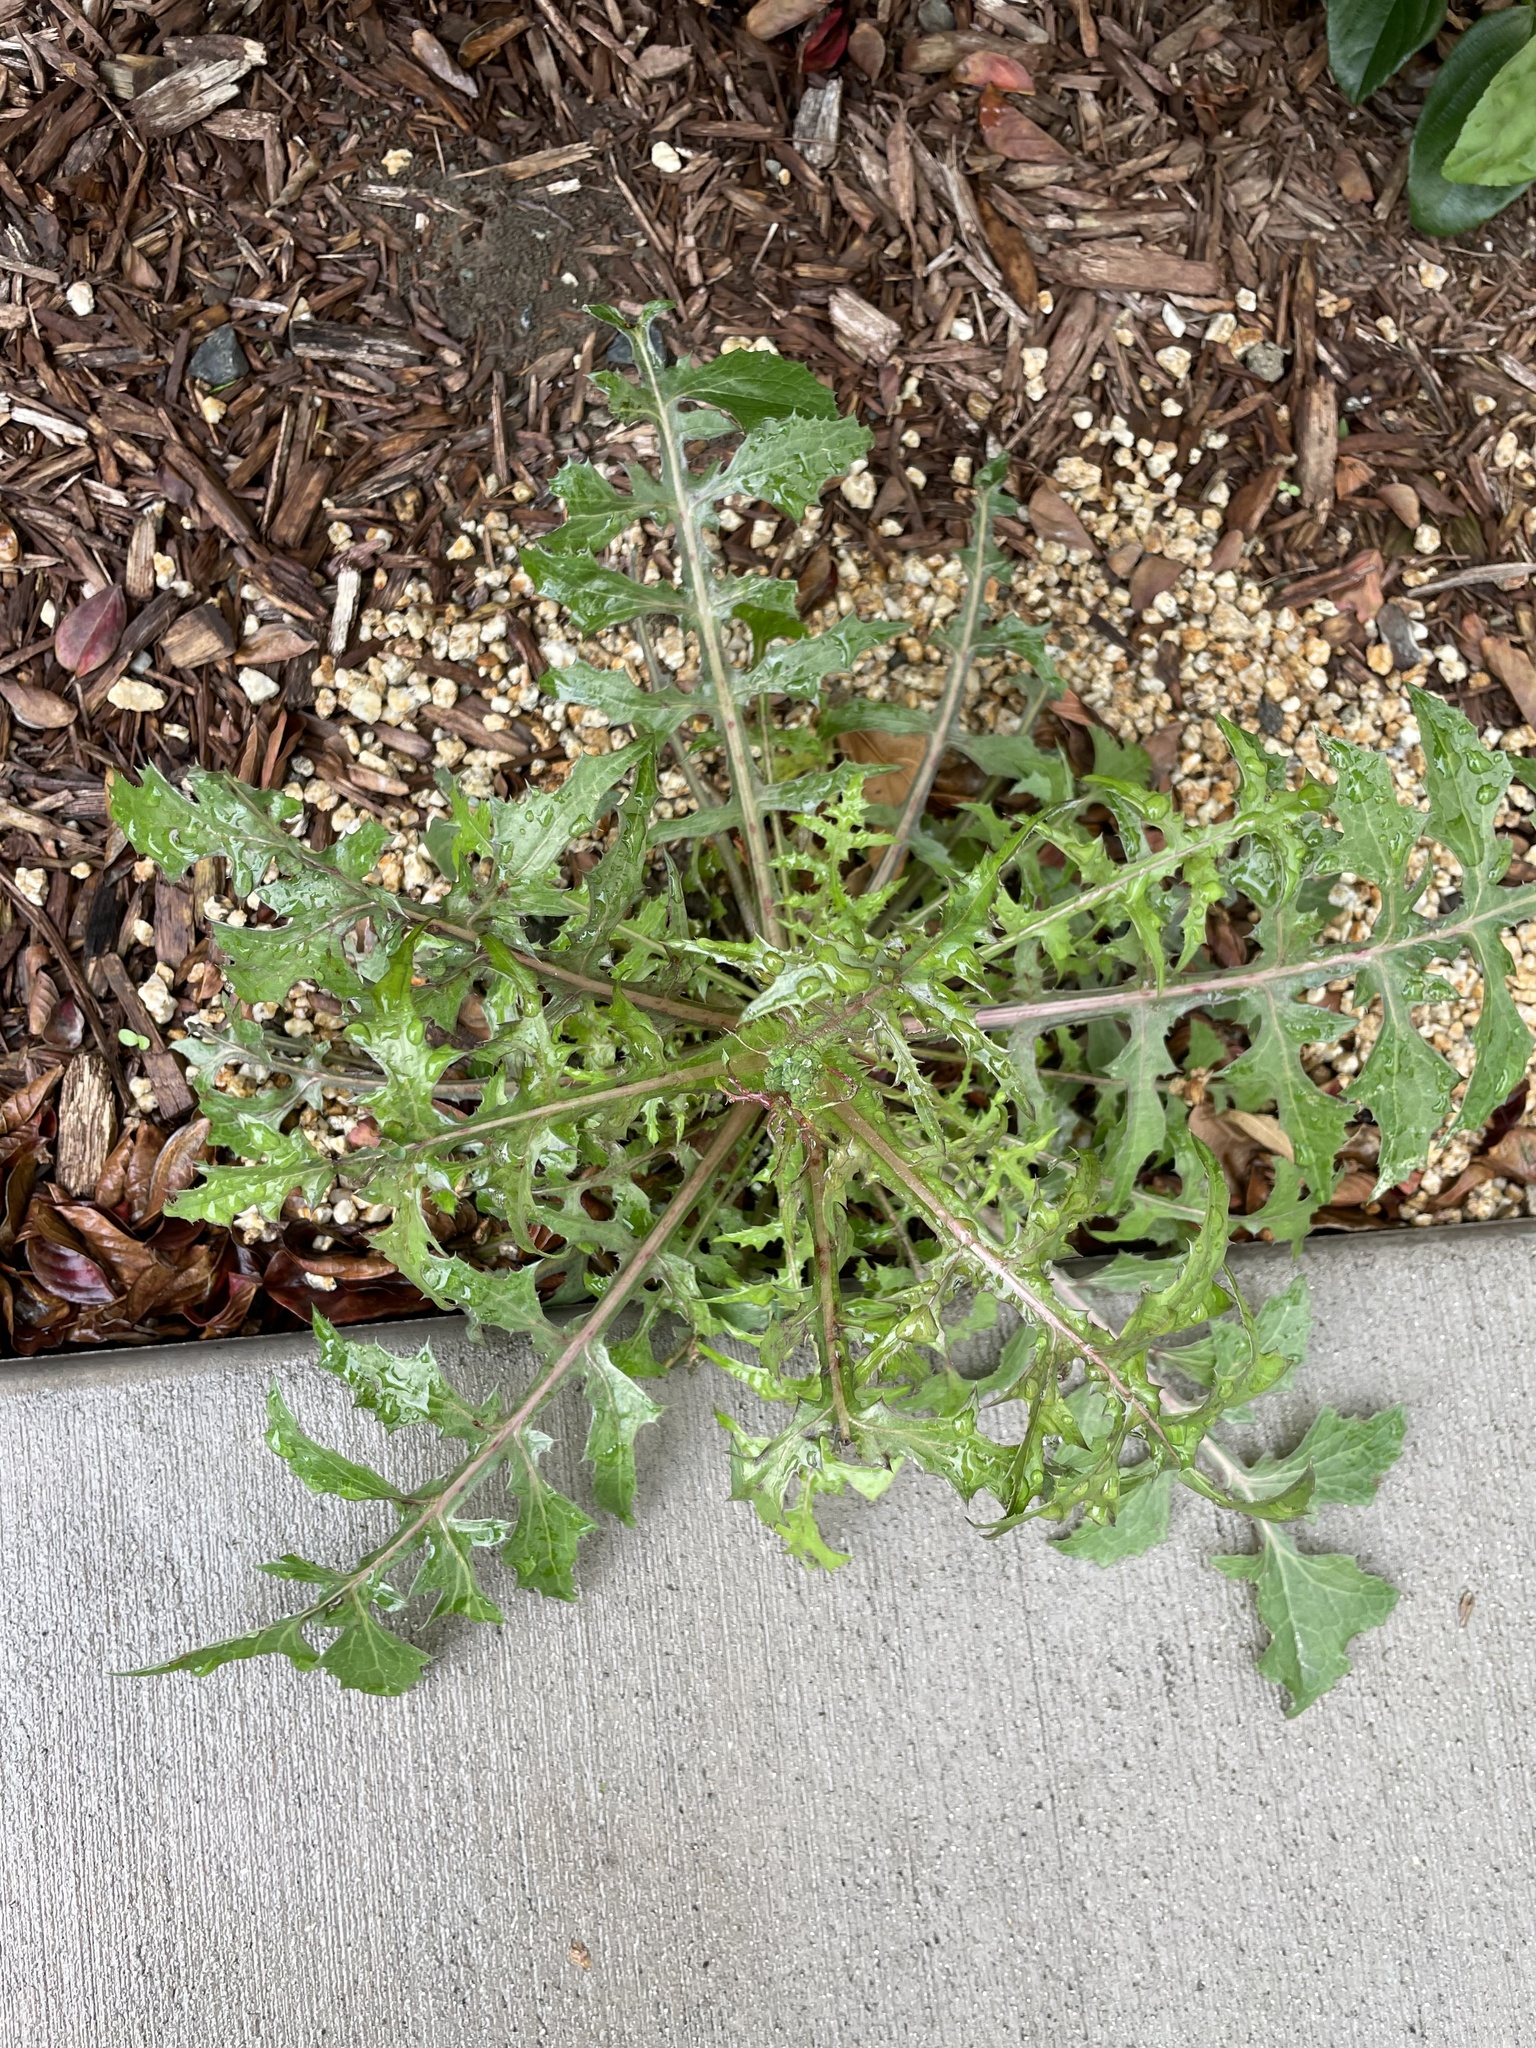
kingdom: Plantae
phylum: Tracheophyta
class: Magnoliopsida
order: Asterales
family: Asteraceae
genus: Sonchus
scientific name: Sonchus oleraceus
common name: Common sowthistle
